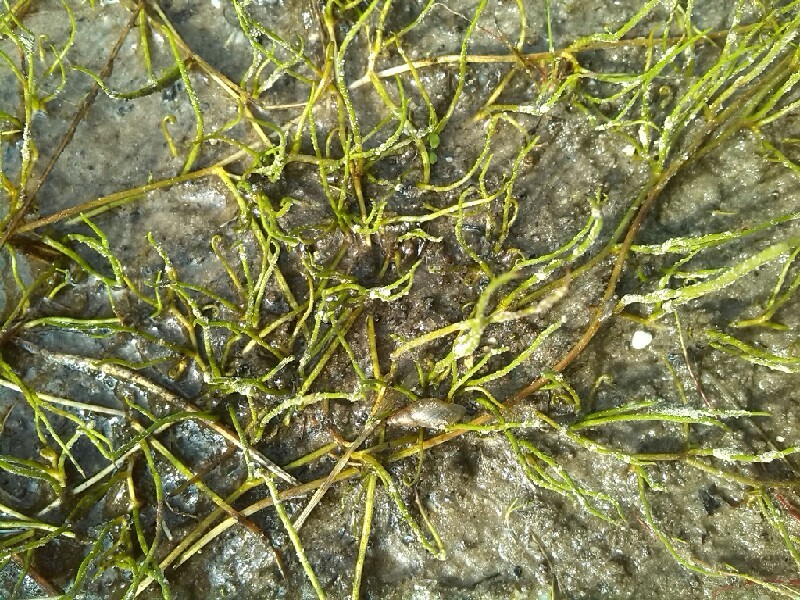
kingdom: Plantae
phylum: Tracheophyta
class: Polypodiopsida
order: Salviniales
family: Marsileaceae
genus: Pilularia
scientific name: Pilularia globulifera
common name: Pillwort
